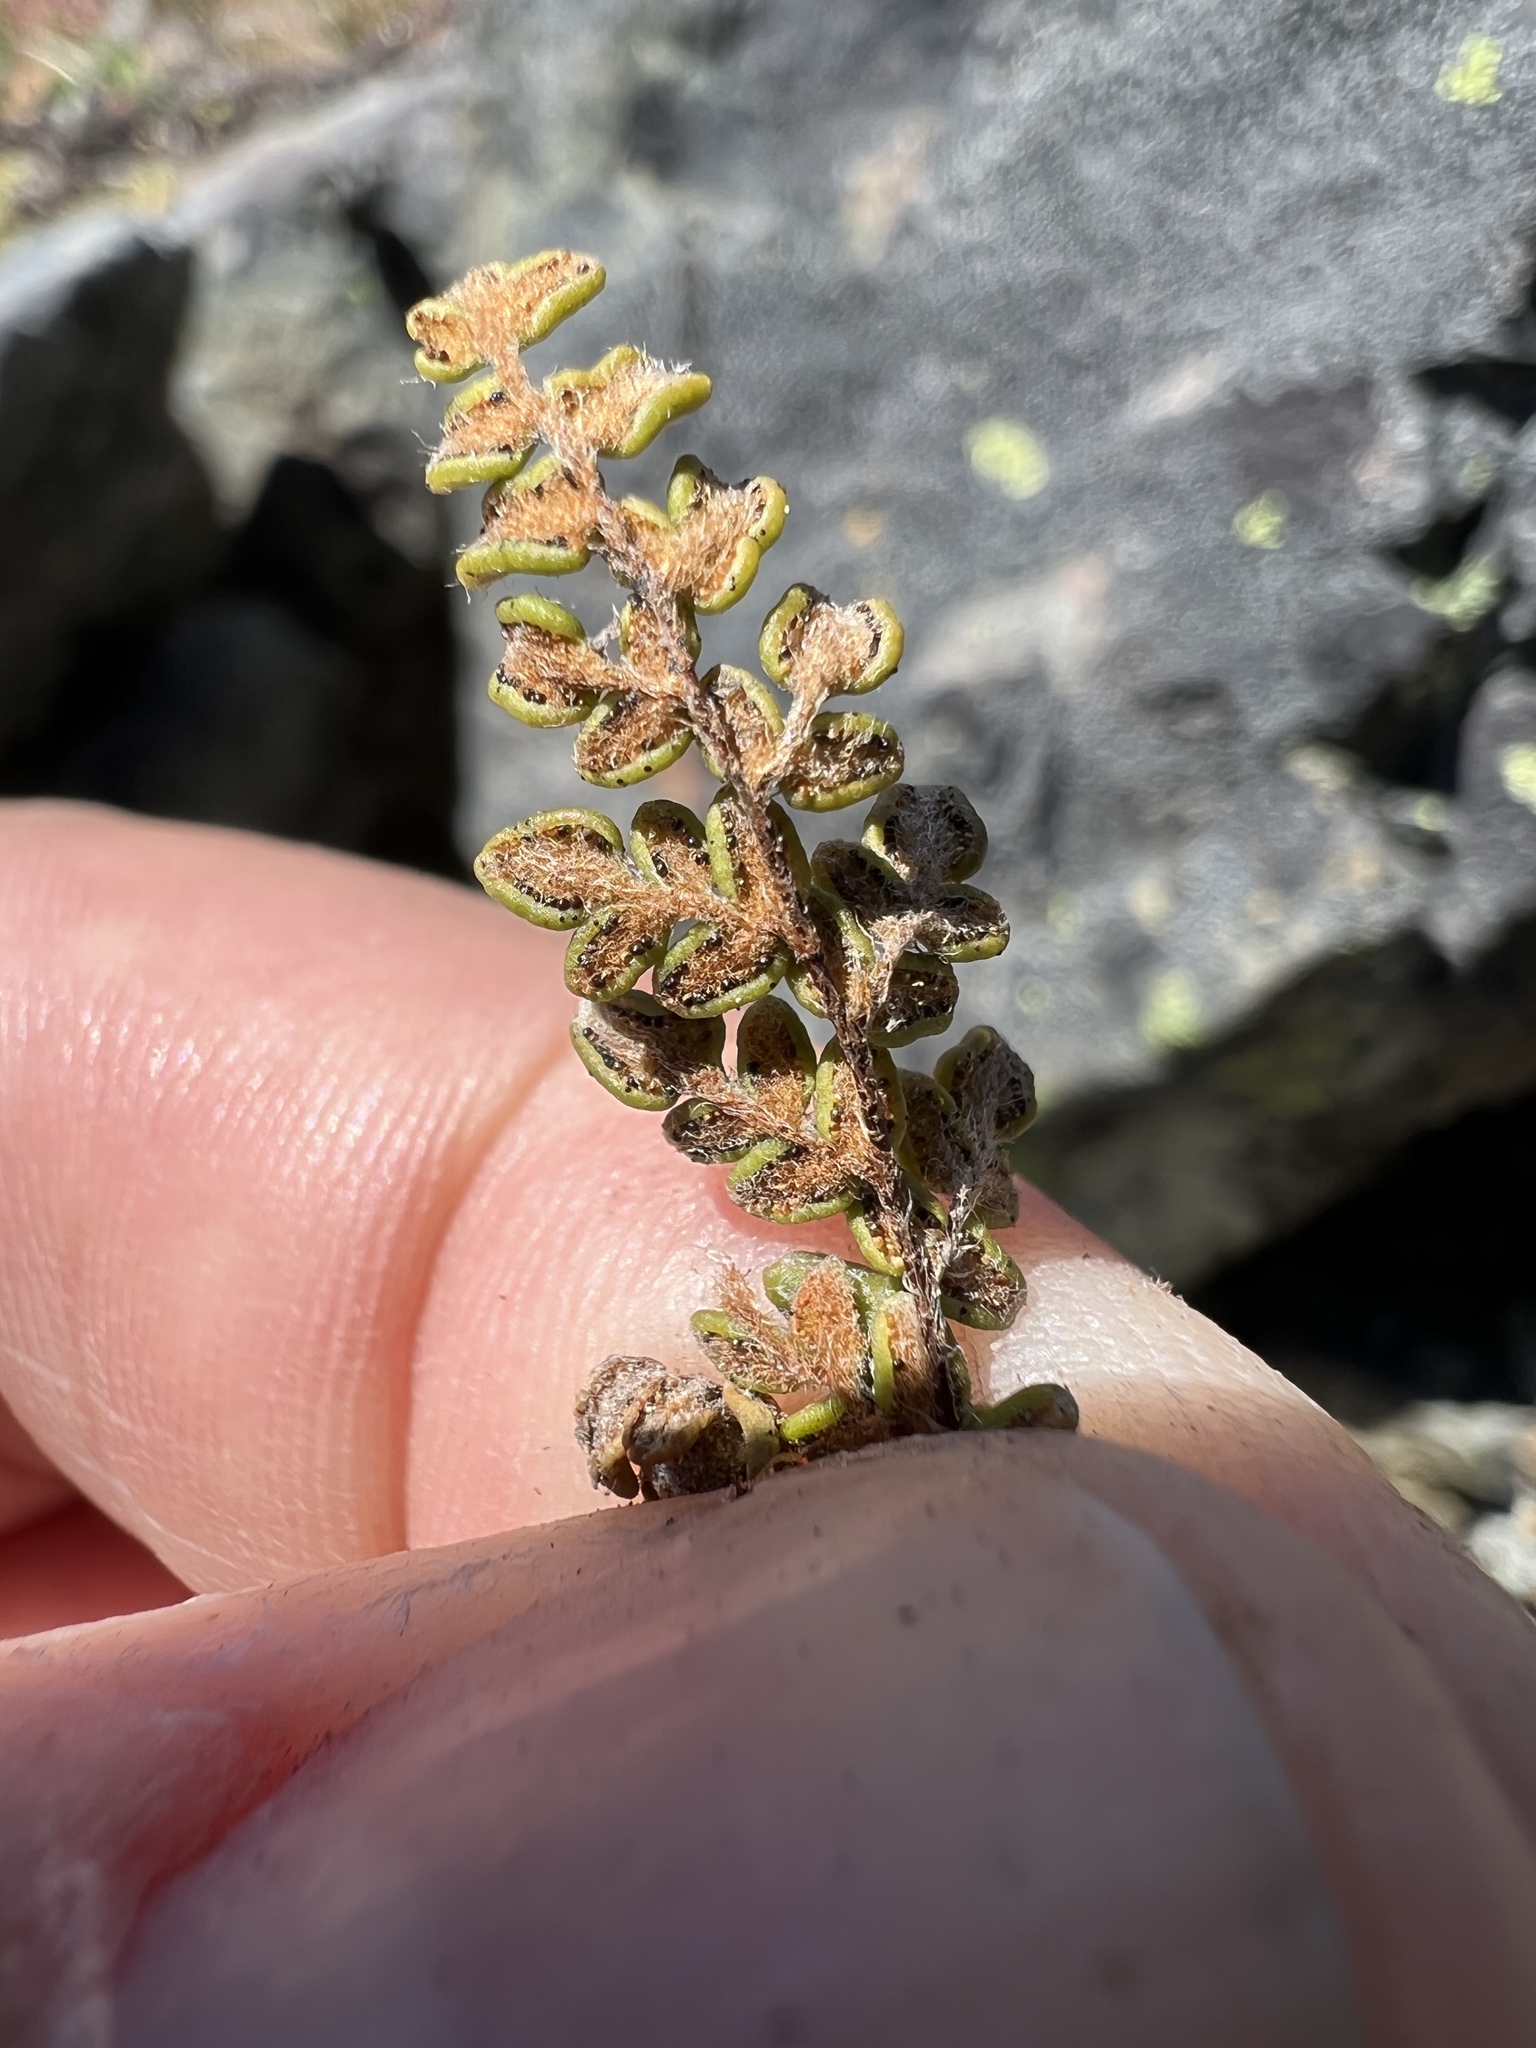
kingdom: Plantae
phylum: Tracheophyta
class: Polypodiopsida
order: Polypodiales
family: Pteridaceae
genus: Myriopteris
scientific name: Myriopteris gracillima
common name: Lace fern
